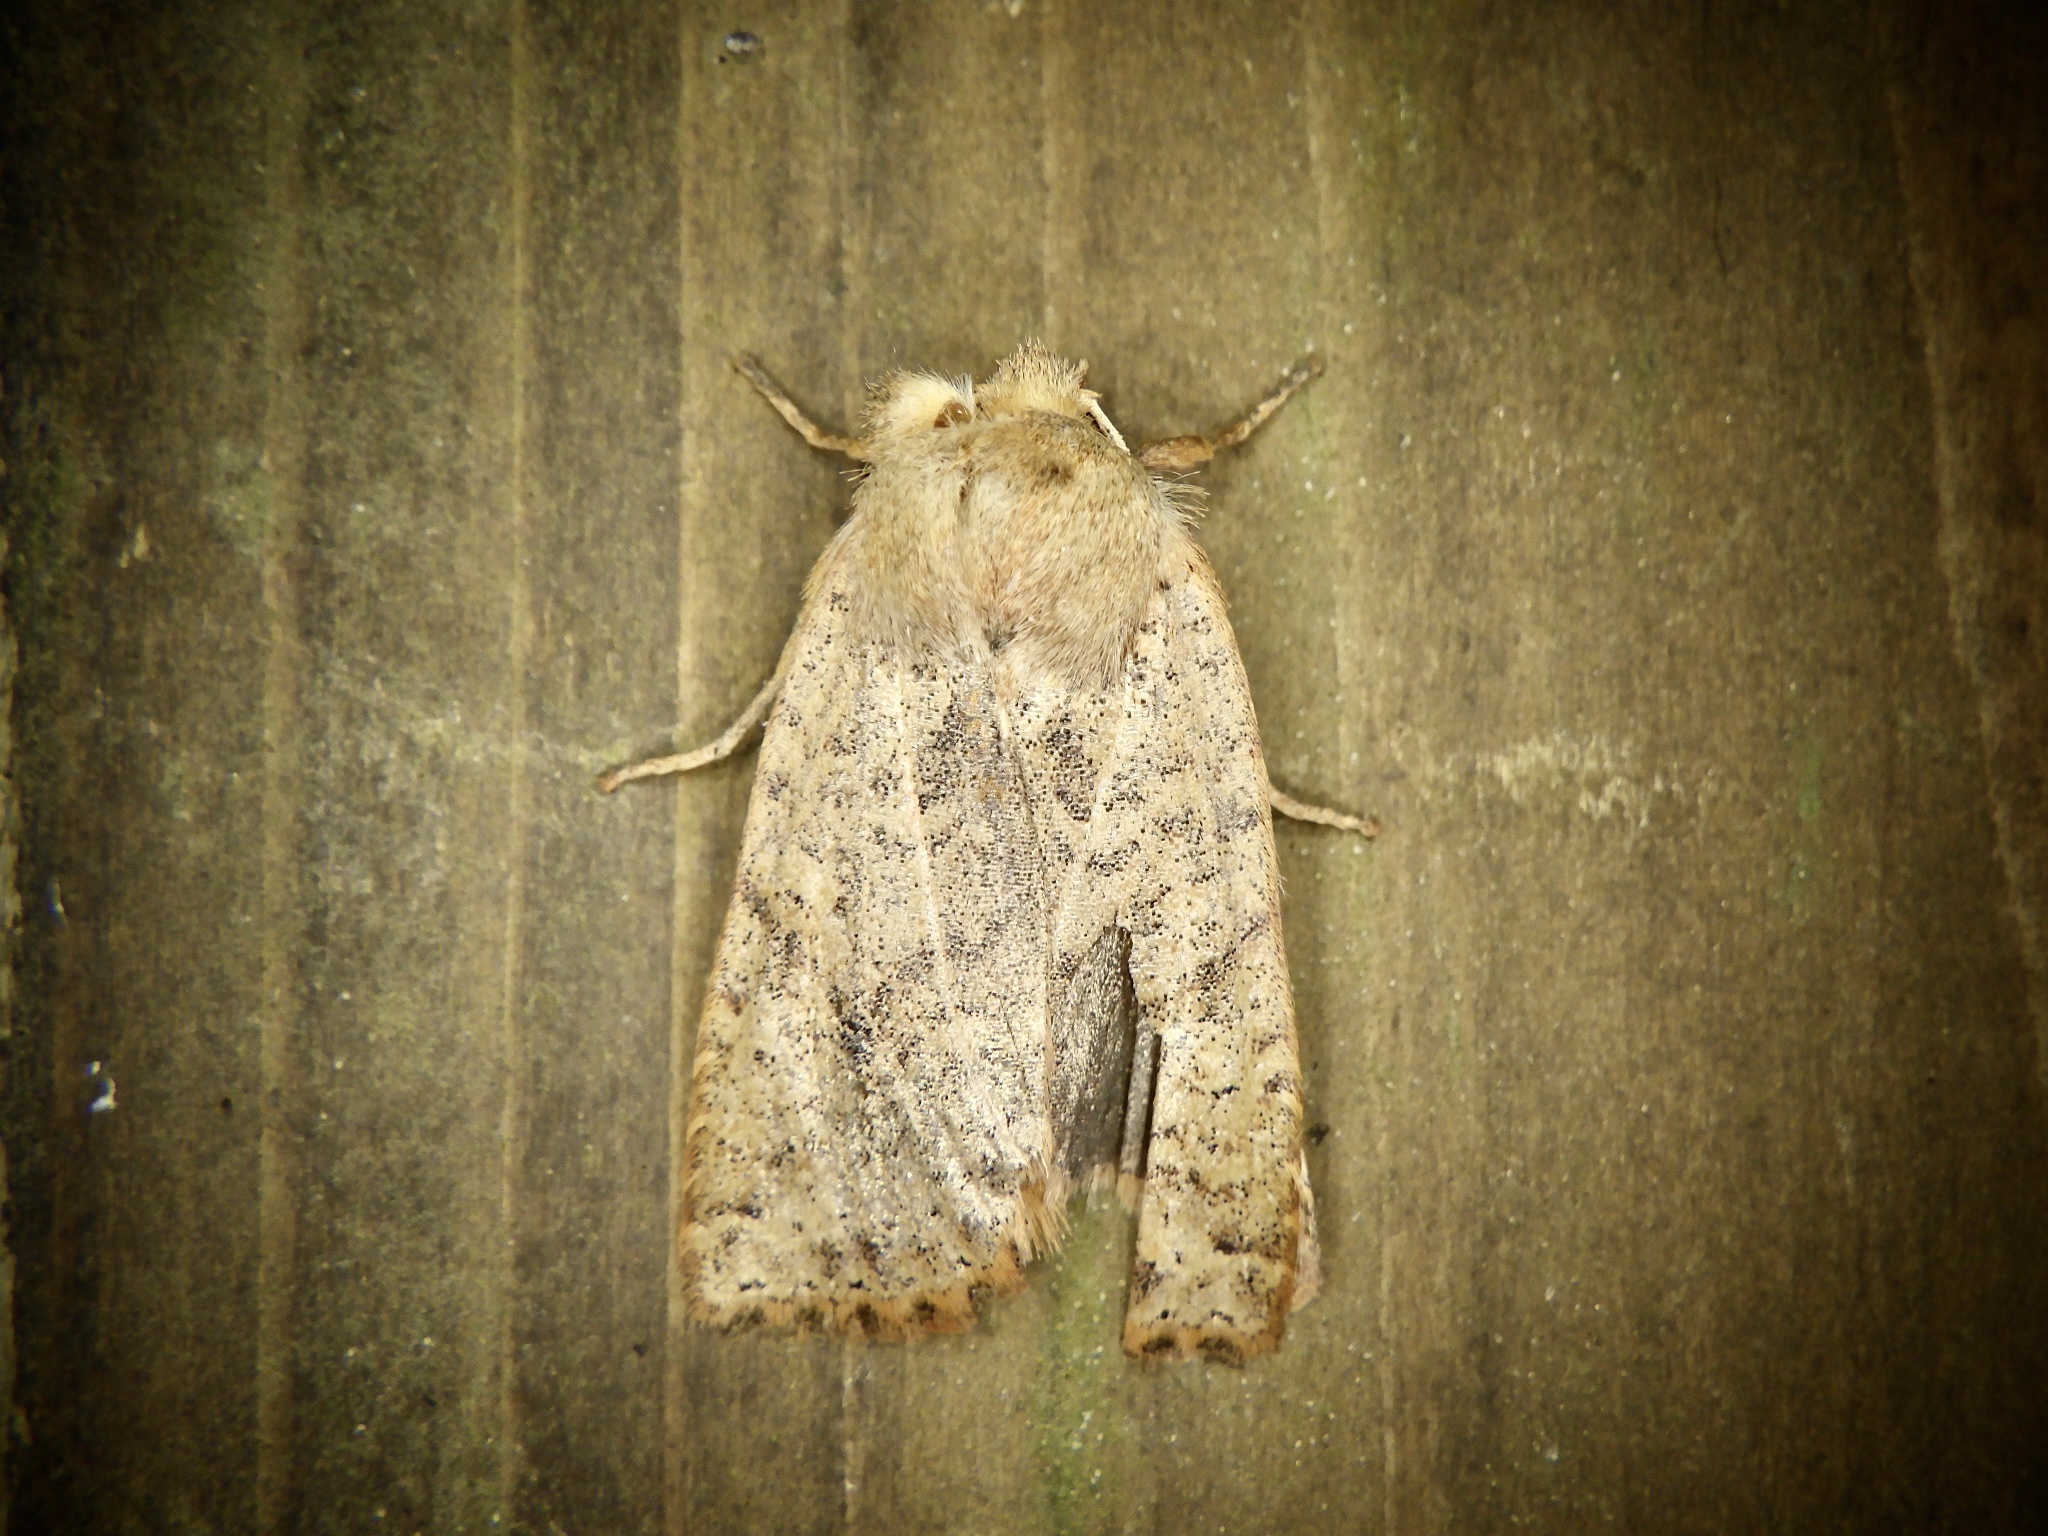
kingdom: Animalia
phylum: Arthropoda
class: Insecta
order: Lepidoptera
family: Noctuidae
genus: Conistra
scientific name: Conistra albipuncta
